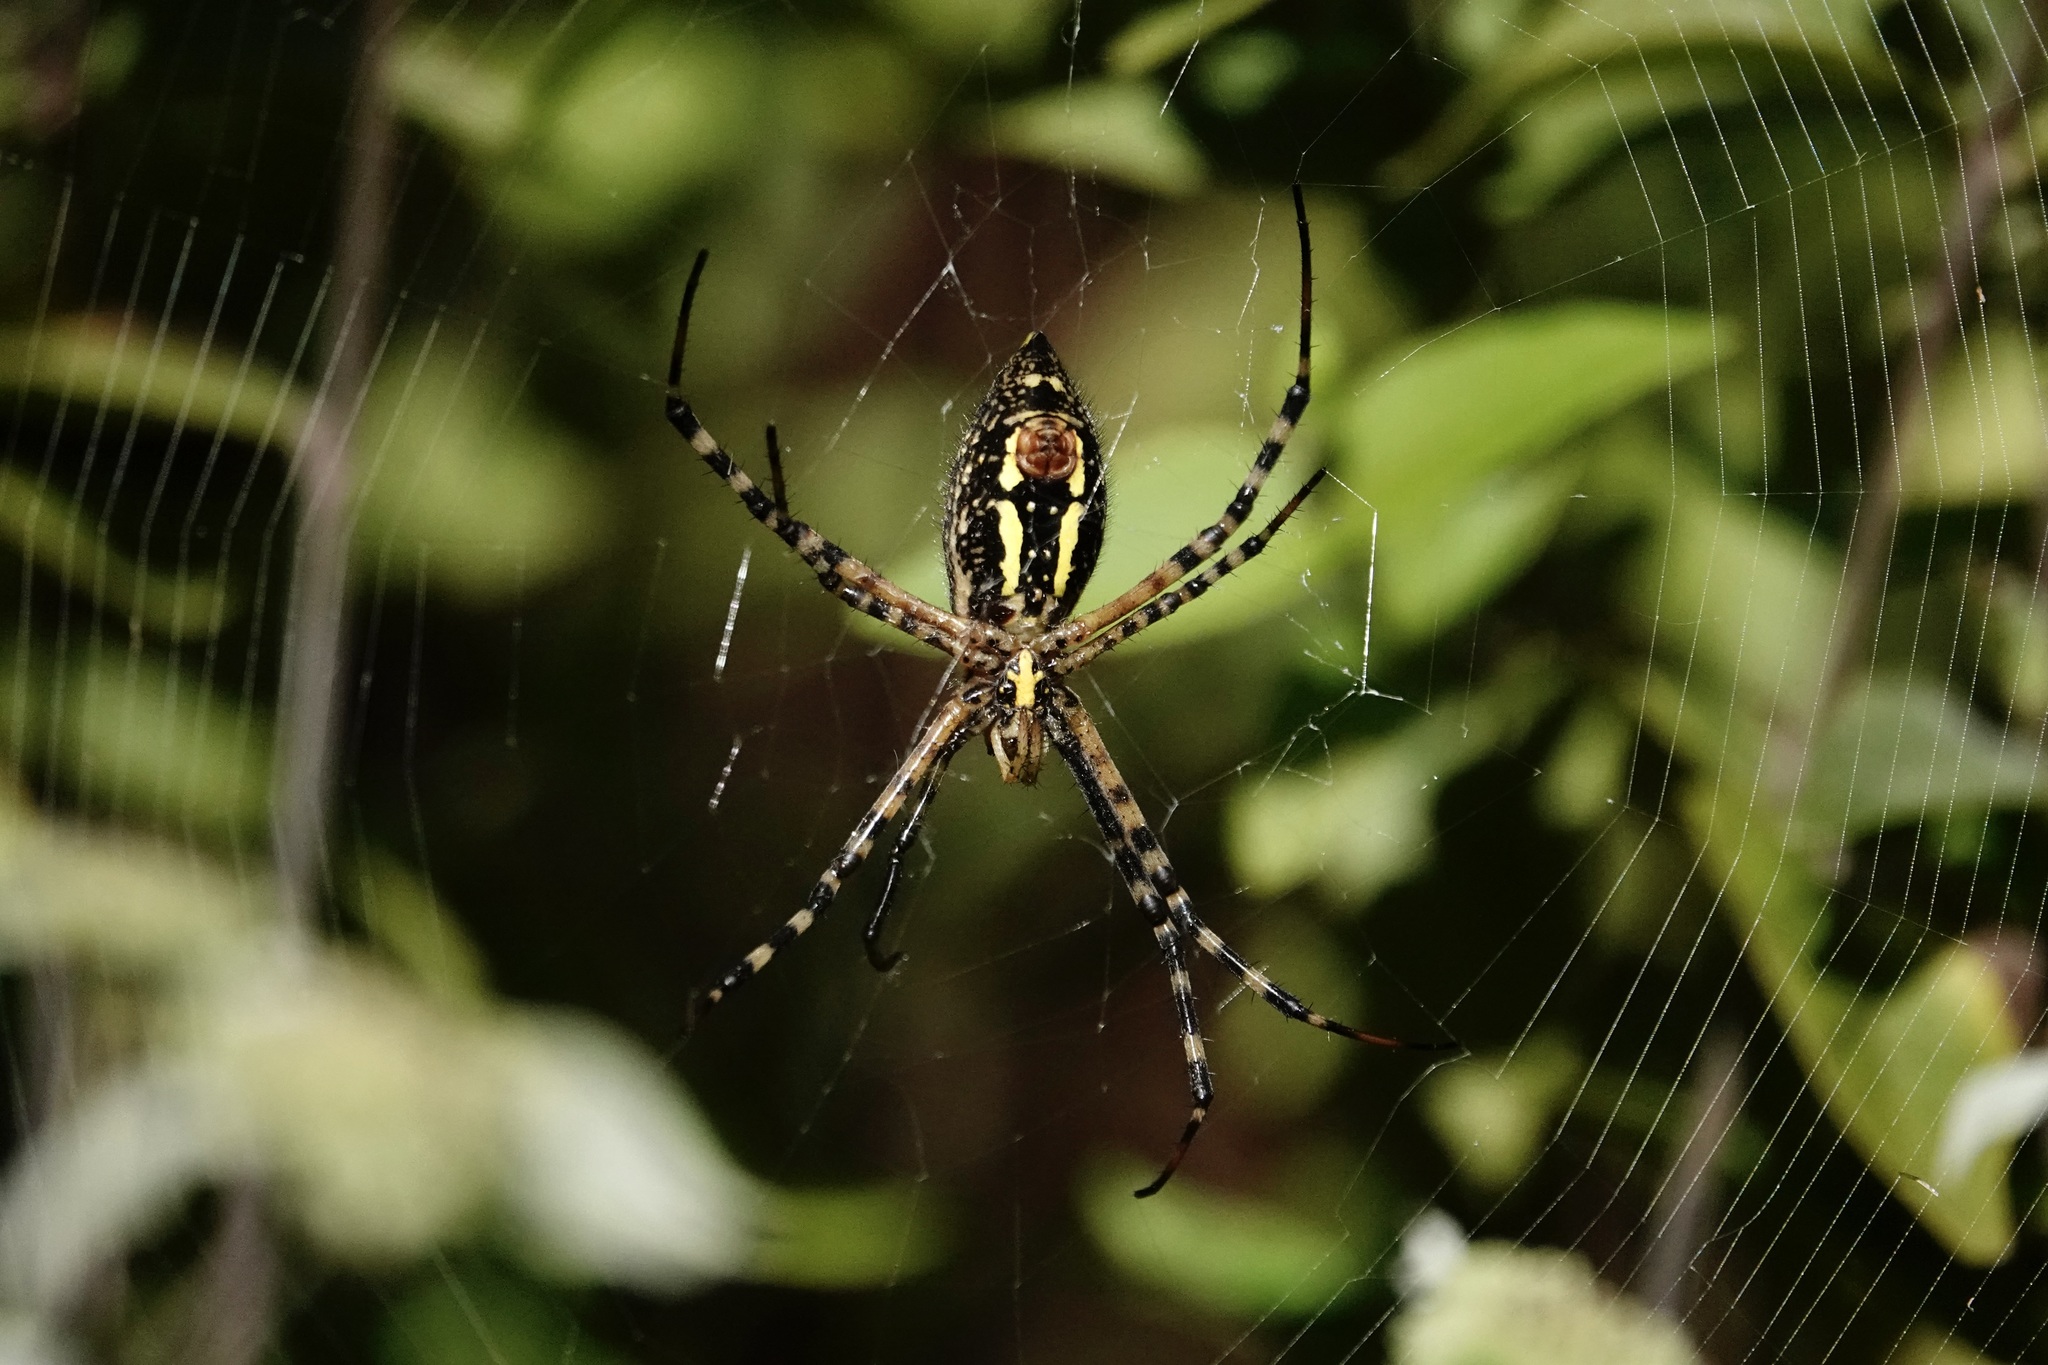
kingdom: Animalia
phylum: Arthropoda
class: Arachnida
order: Araneae
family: Araneidae
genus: Argiope
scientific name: Argiope trifasciata
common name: Banded garden spider
